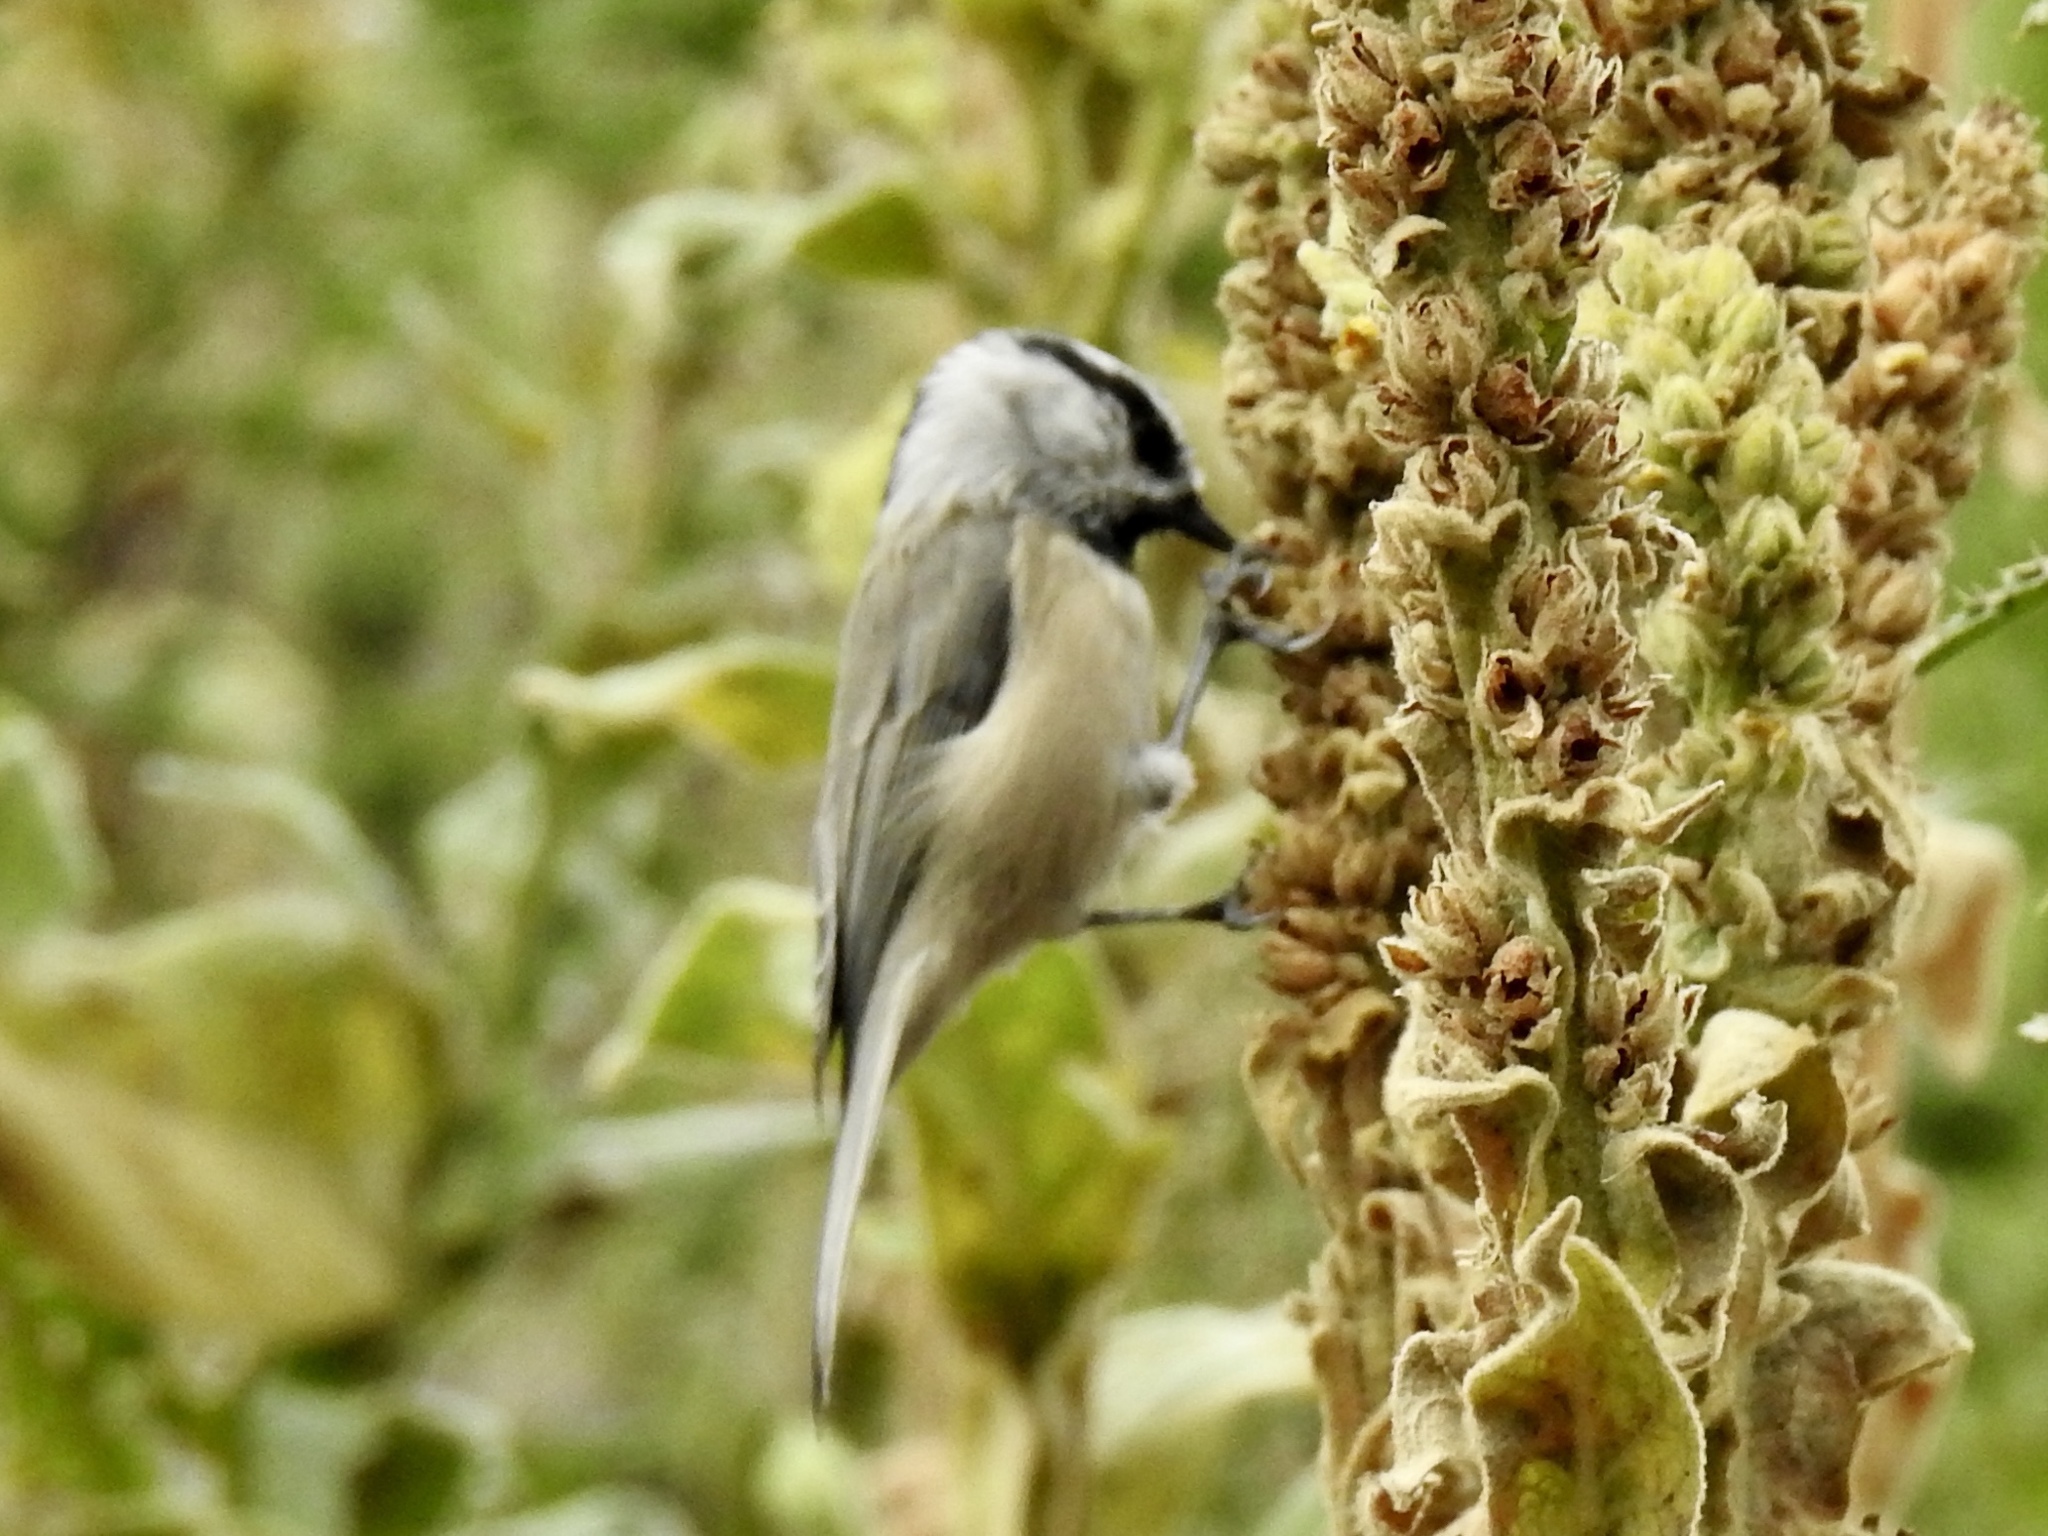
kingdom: Animalia
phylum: Chordata
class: Aves
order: Passeriformes
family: Paridae
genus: Poecile
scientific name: Poecile gambeli
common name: Mountain chickadee
